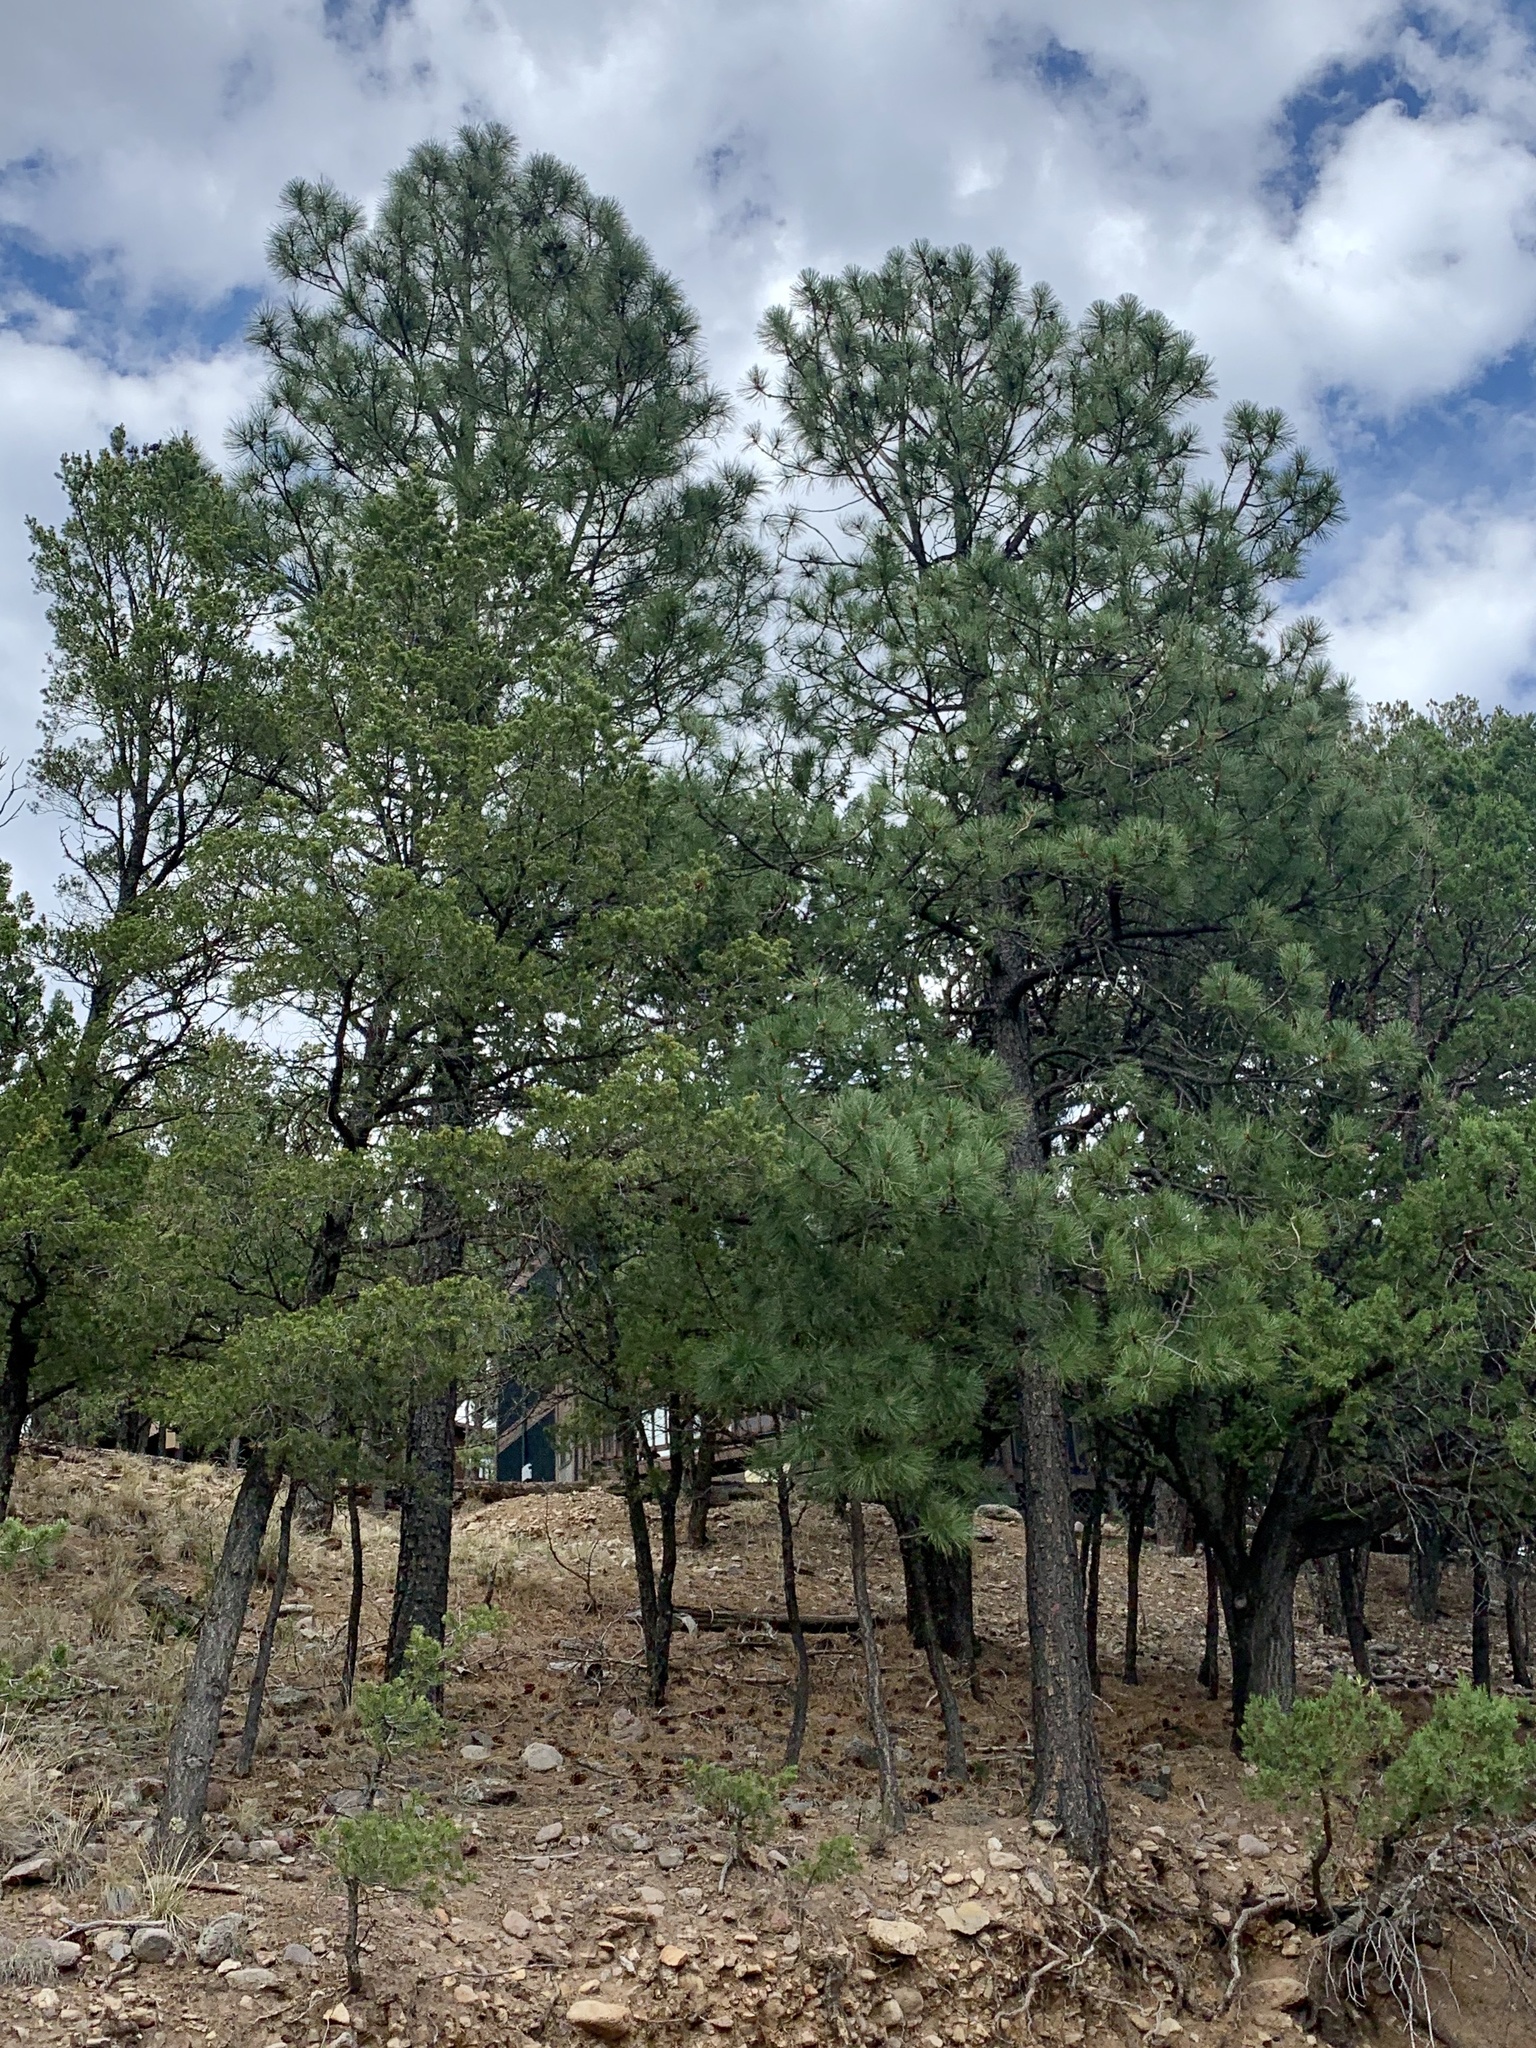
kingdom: Plantae
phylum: Tracheophyta
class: Pinopsida
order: Pinales
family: Pinaceae
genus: Pinus
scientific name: Pinus ponderosa
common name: Western yellow-pine
